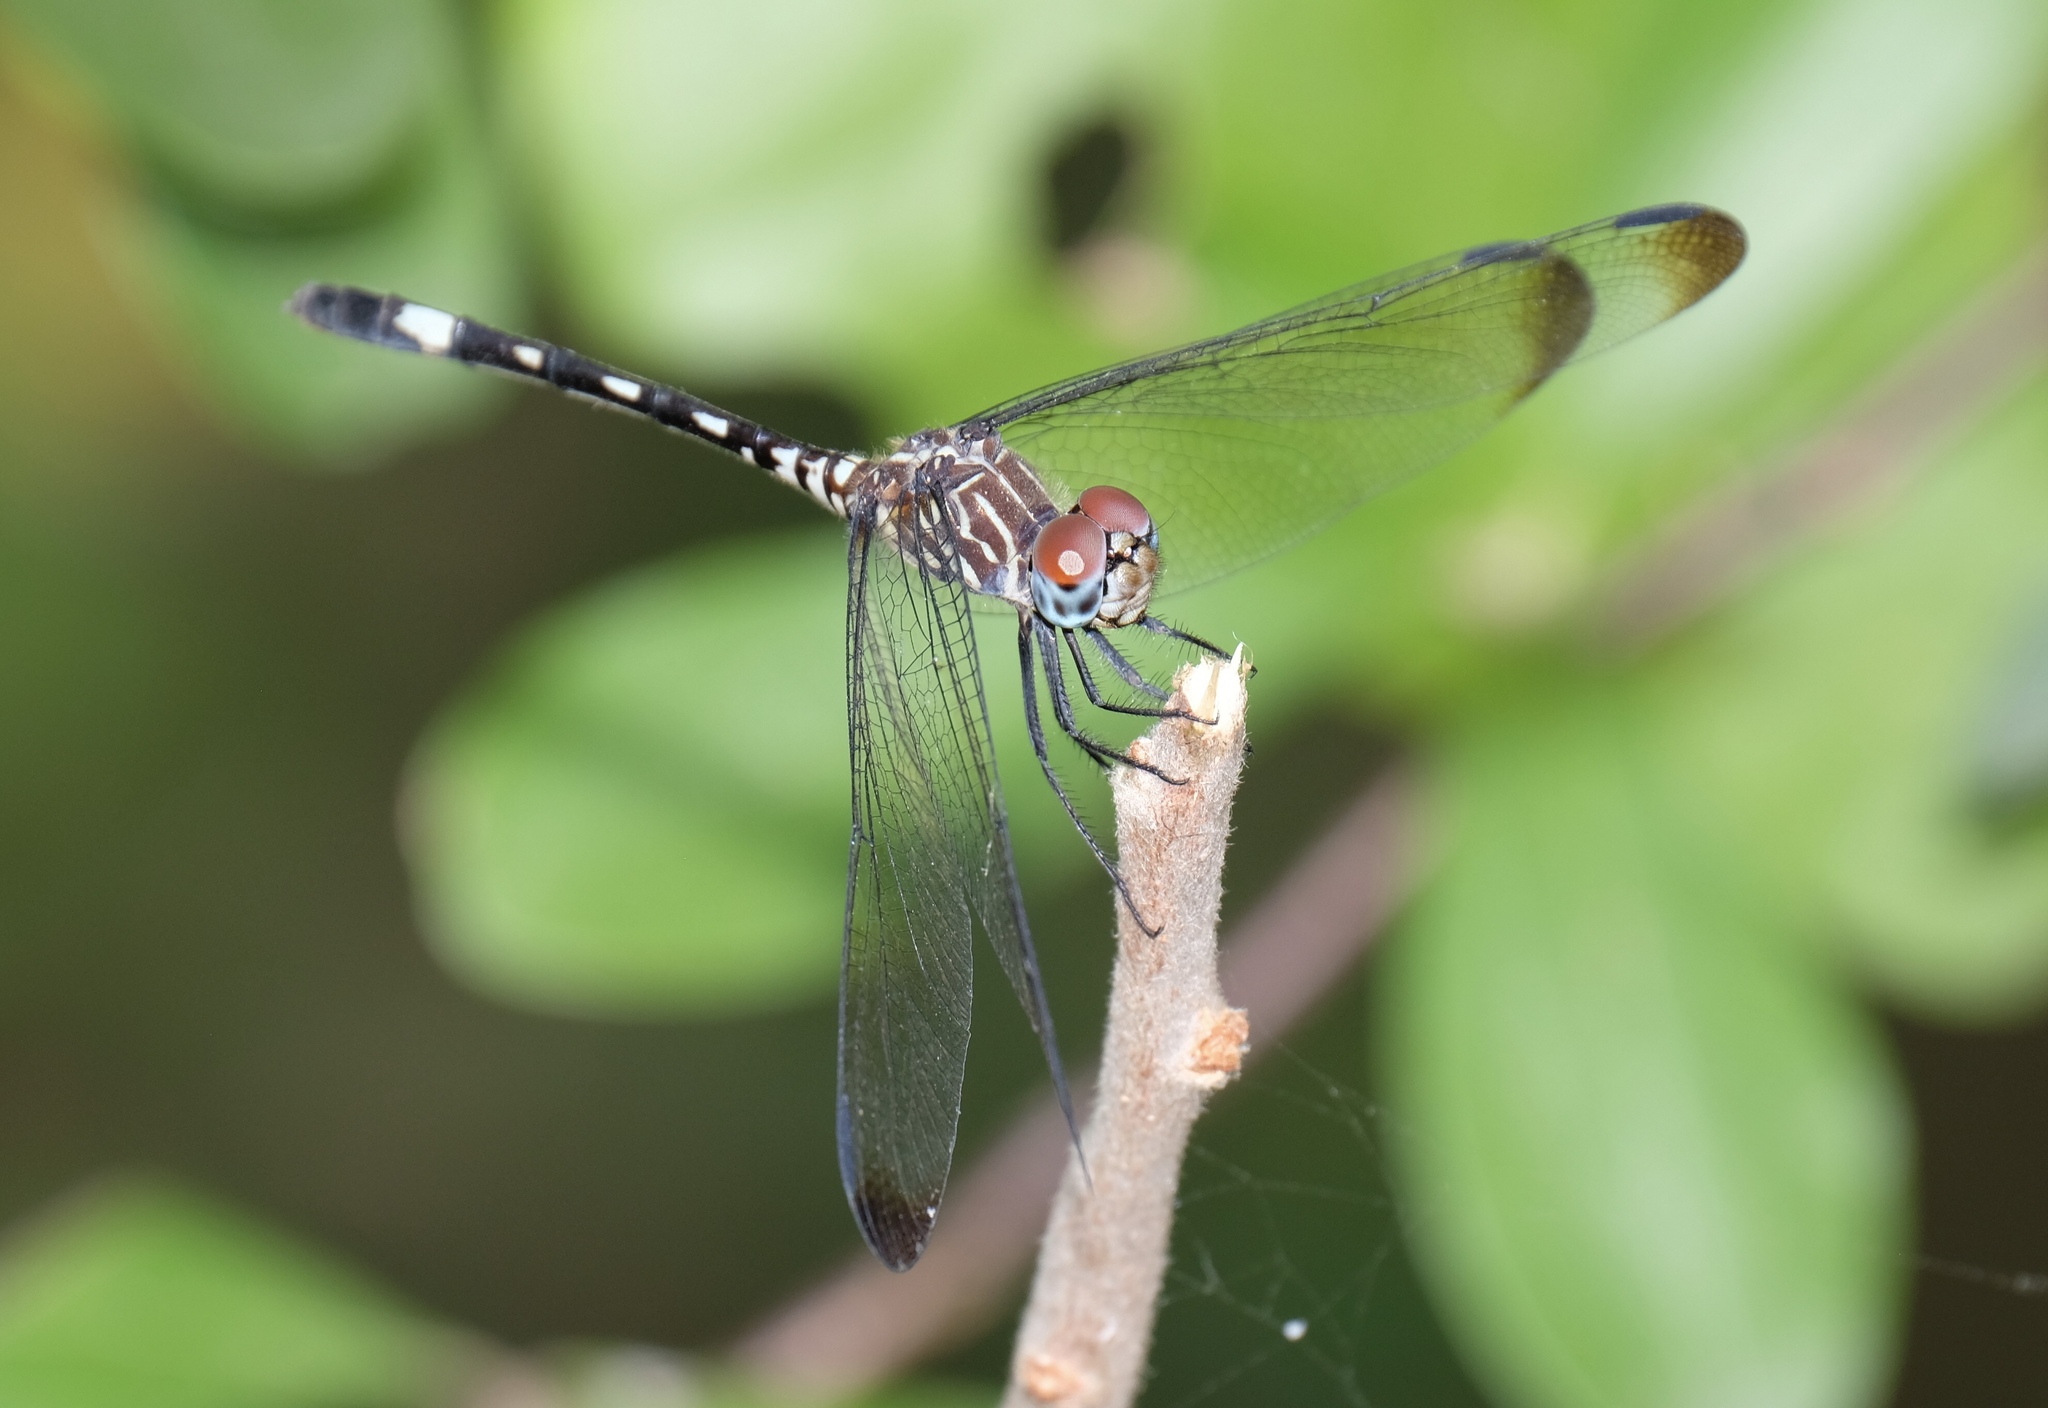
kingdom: Animalia
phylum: Arthropoda
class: Insecta
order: Odonata
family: Libellulidae
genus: Dythemis
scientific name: Dythemis velox
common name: Swift setwing
